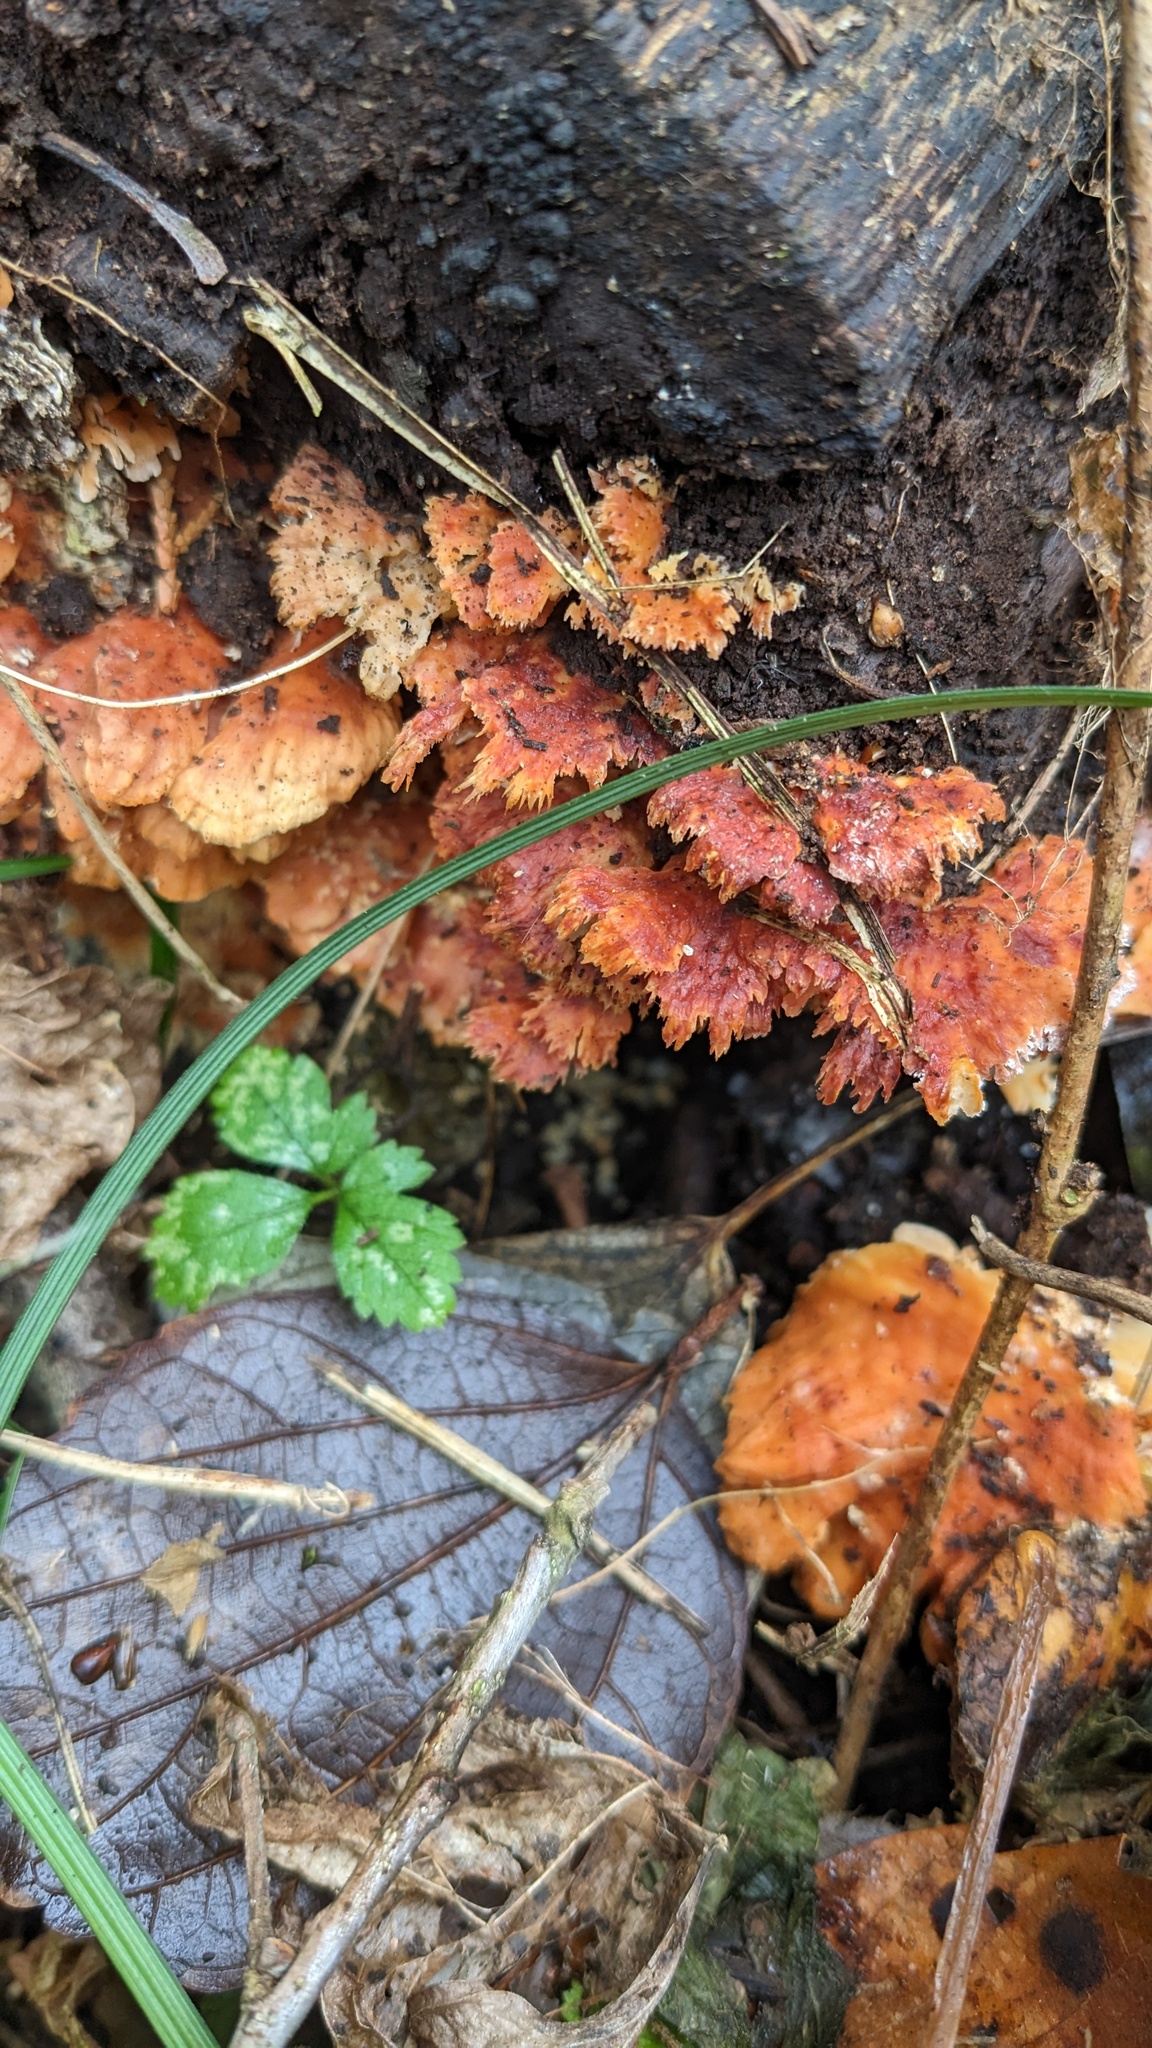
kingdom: Fungi
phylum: Basidiomycota
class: Agaricomycetes
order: Polyporales
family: Irpicaceae
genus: Irpex
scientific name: Irpex consors
